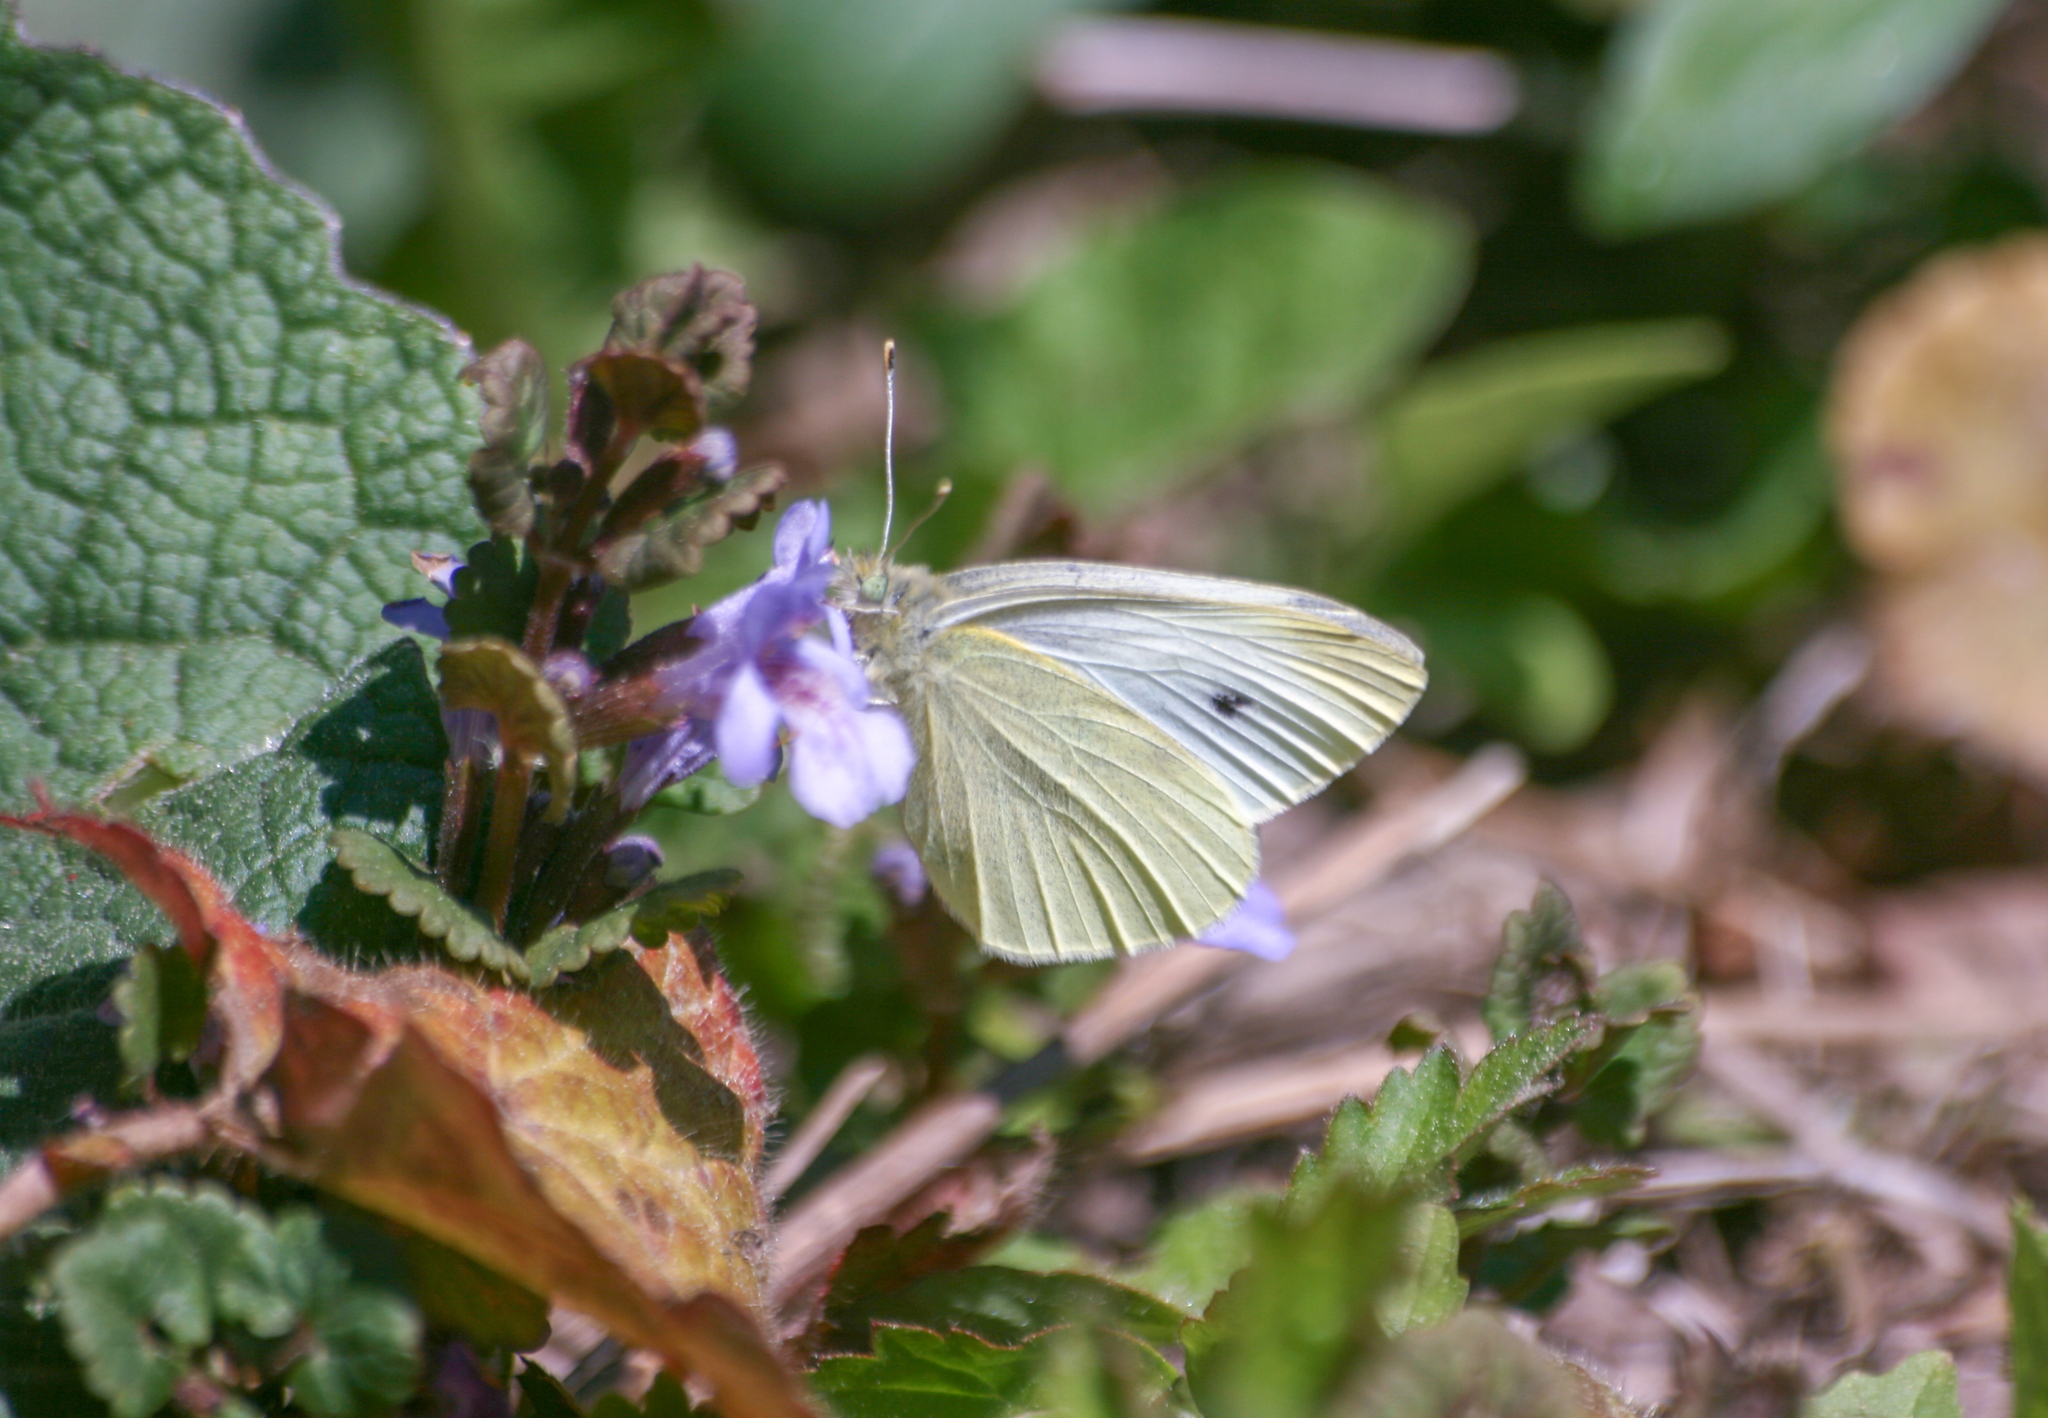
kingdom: Animalia
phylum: Arthropoda
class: Insecta
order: Lepidoptera
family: Pieridae
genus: Pieris
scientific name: Pieris rapae
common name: Small white
